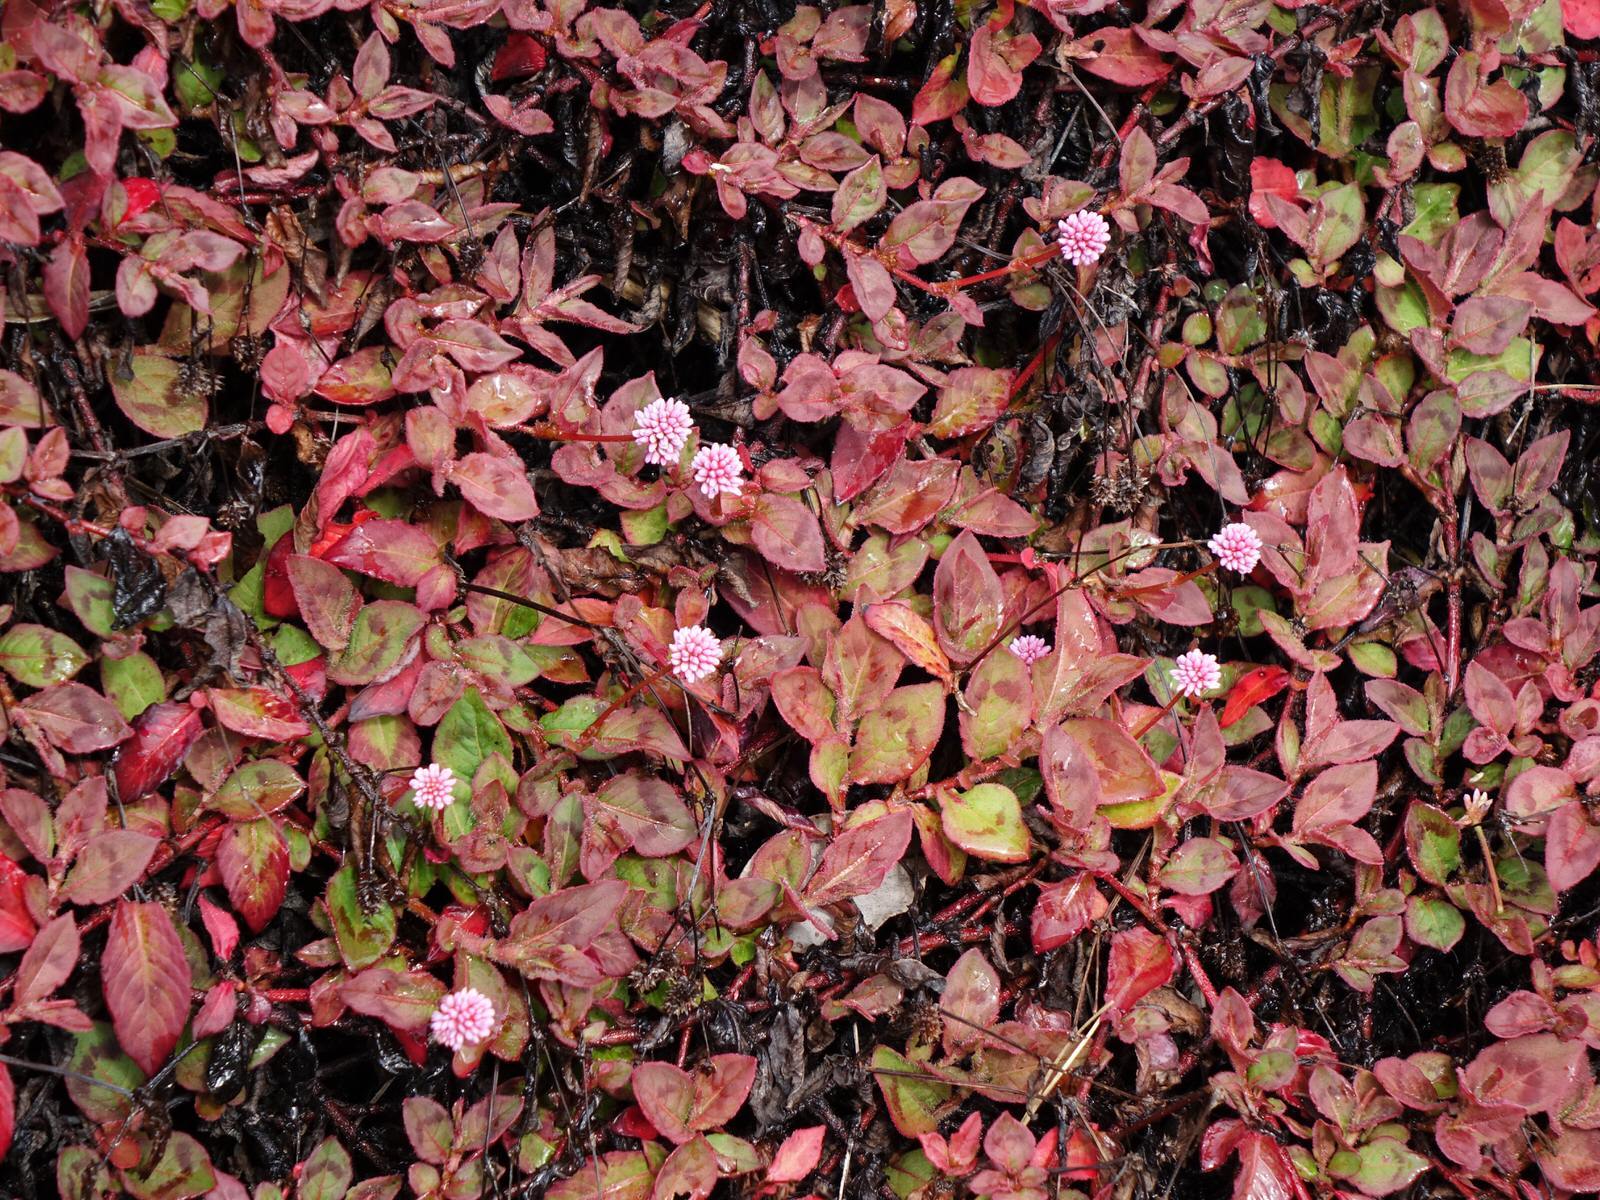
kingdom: Plantae
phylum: Tracheophyta
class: Magnoliopsida
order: Caryophyllales
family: Polygonaceae
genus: Persicaria
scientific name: Persicaria capitata
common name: Pinkhead smartweed
